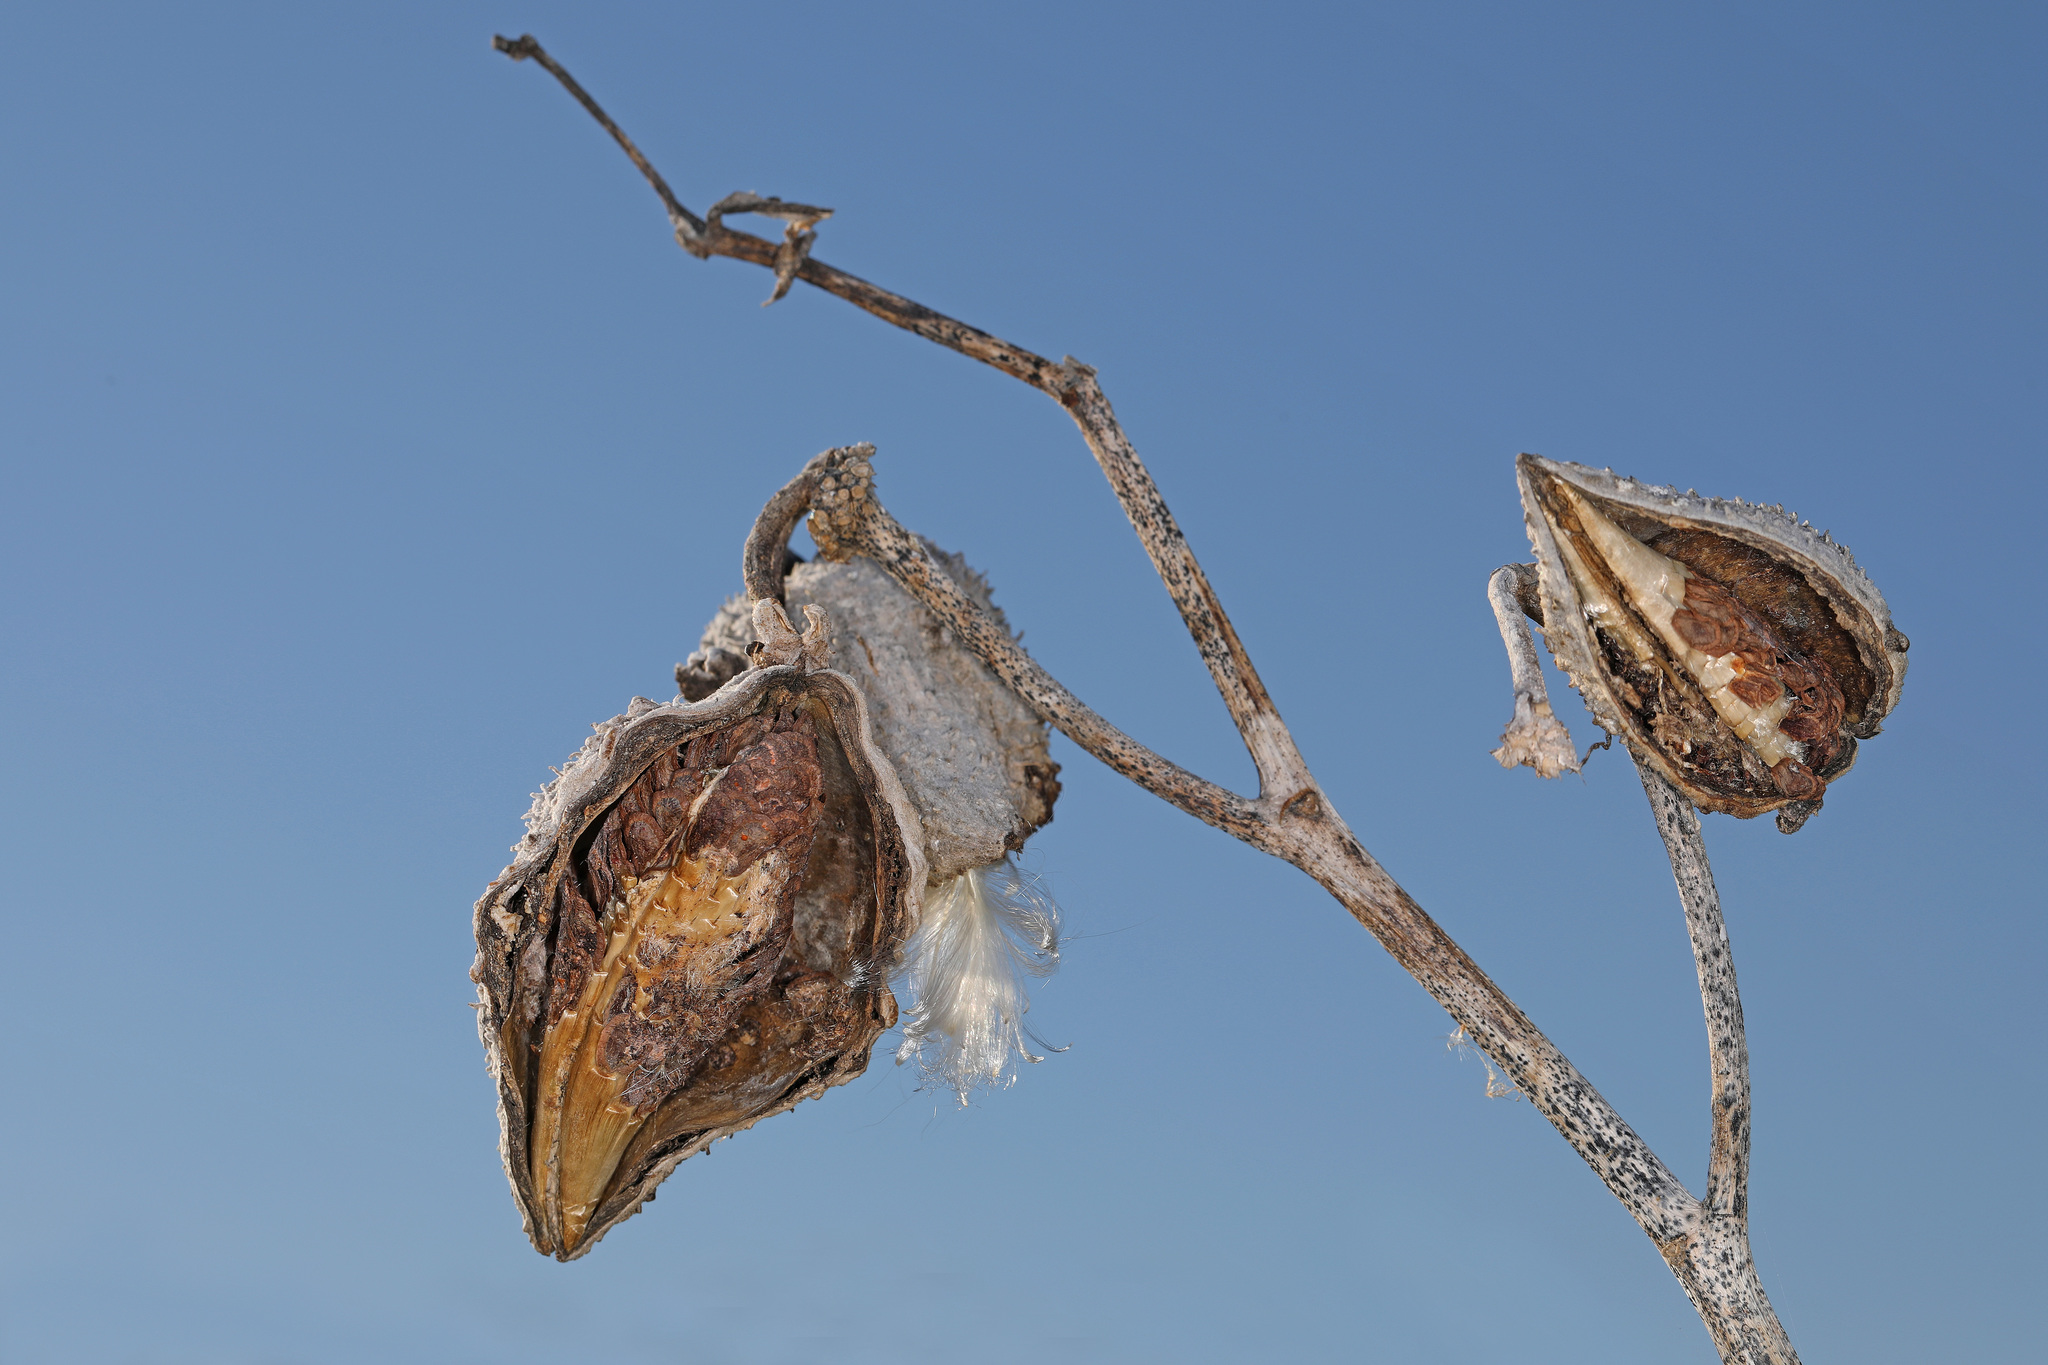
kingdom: Plantae
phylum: Tracheophyta
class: Magnoliopsida
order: Gentianales
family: Apocynaceae
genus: Asclepias
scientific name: Asclepias syriaca
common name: Common milkweed
